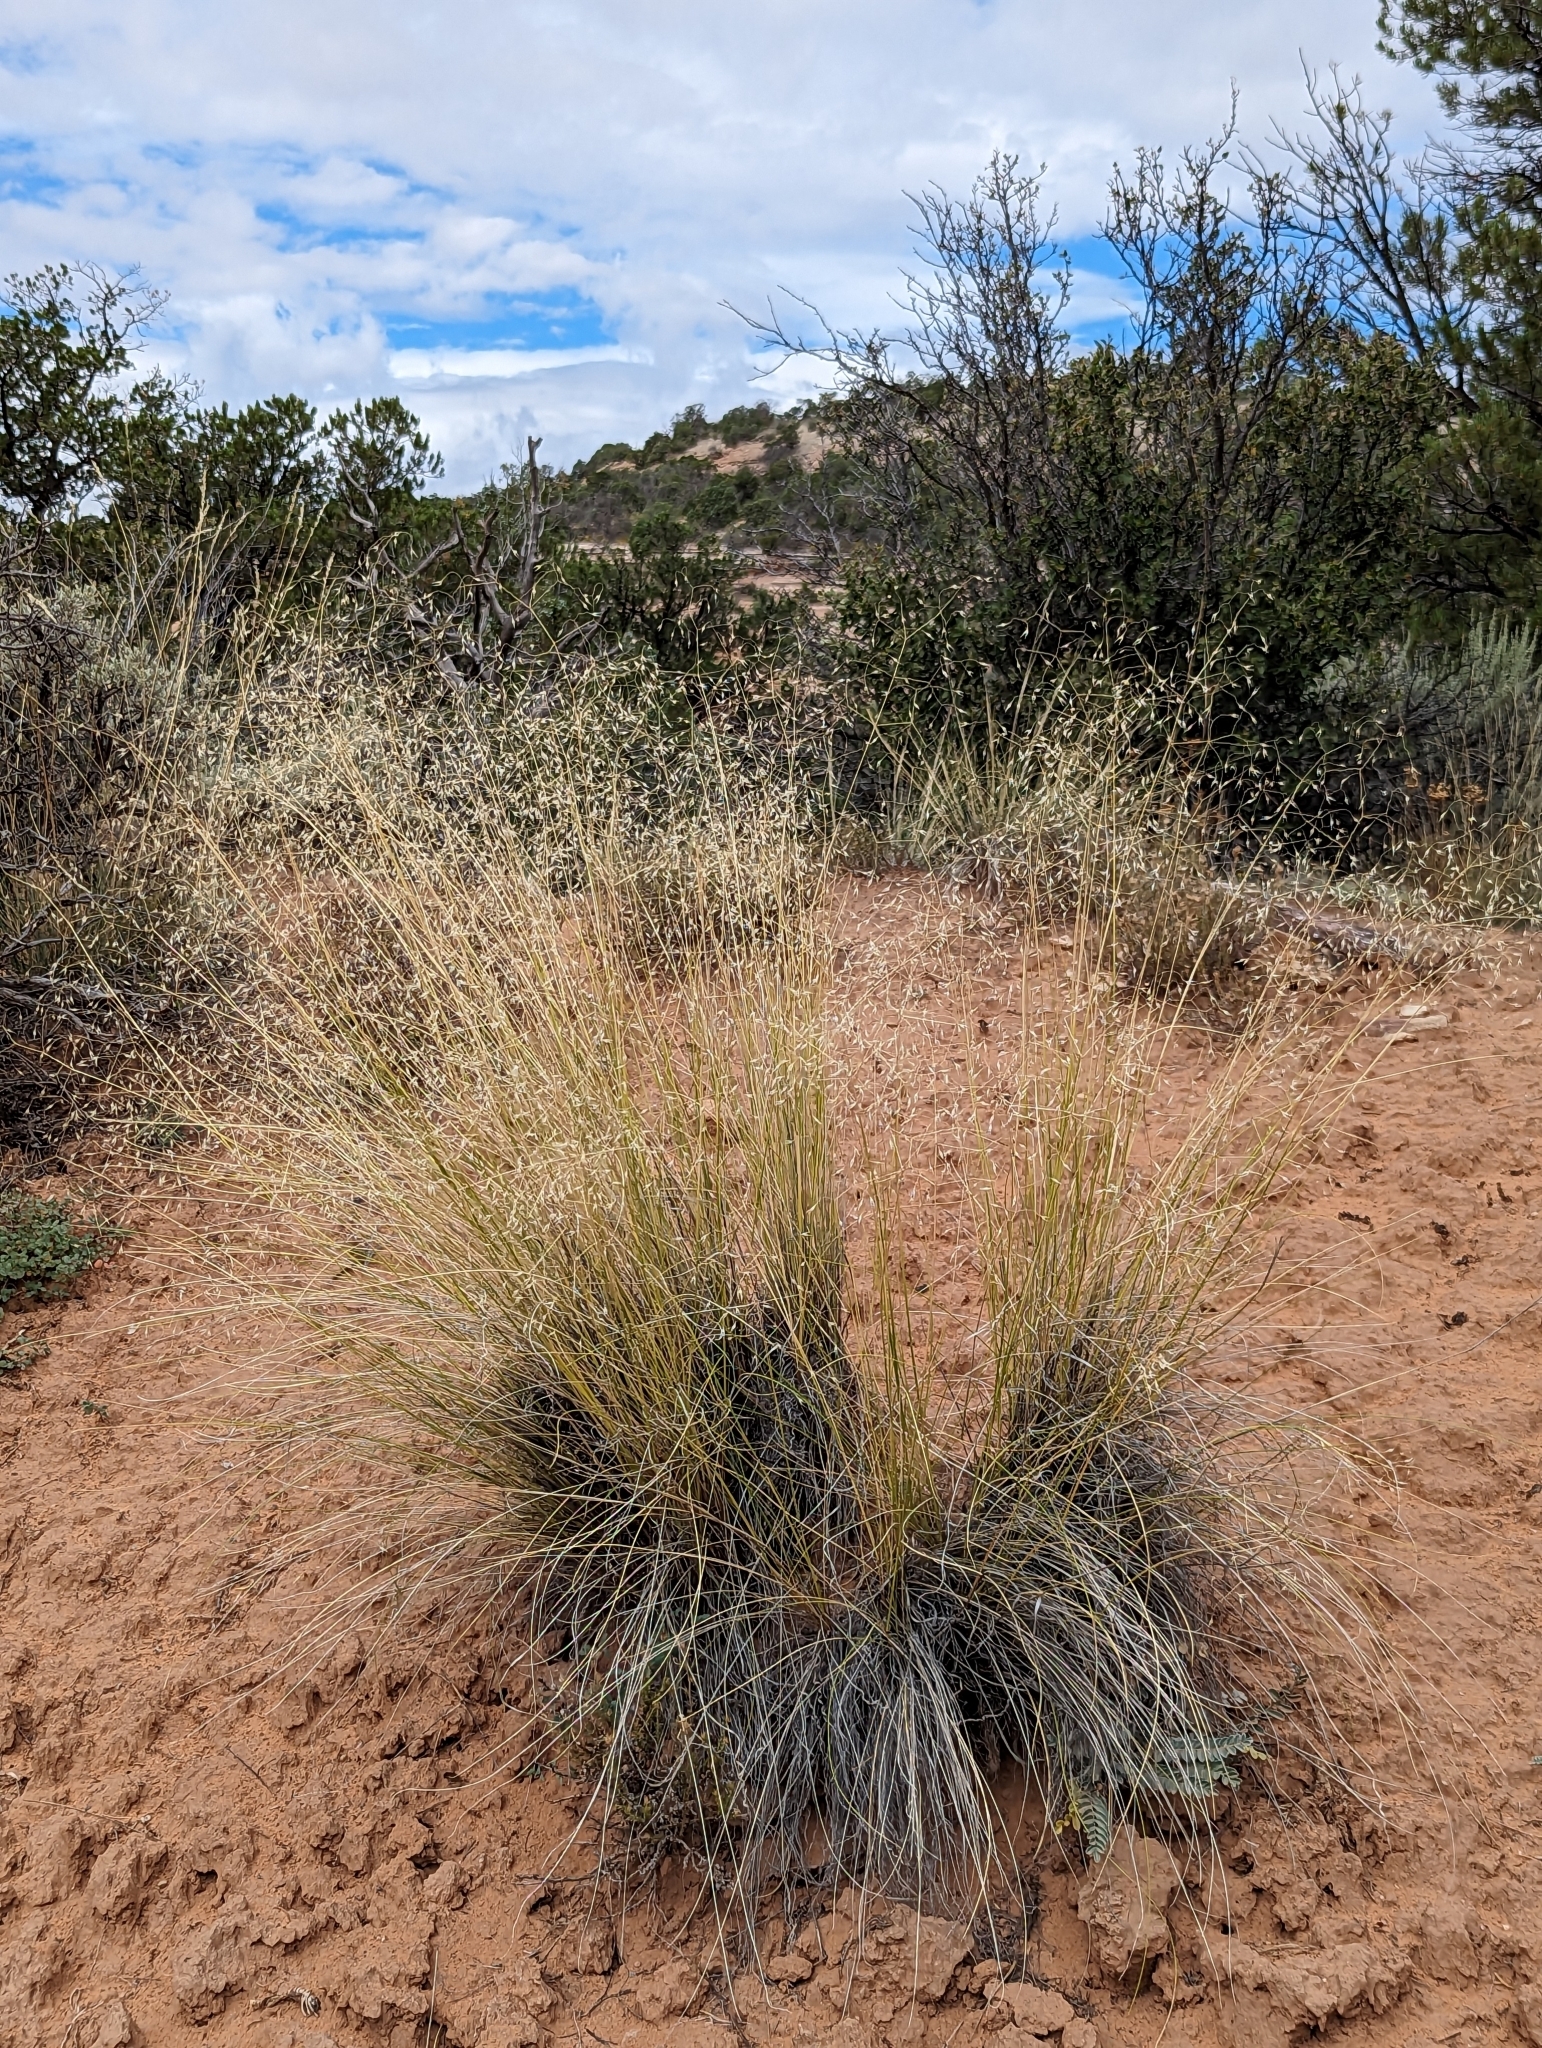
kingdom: Plantae
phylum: Tracheophyta
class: Liliopsida
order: Poales
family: Poaceae
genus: Eriocoma
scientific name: Eriocoma hymenoides
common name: Indian mountain ricegrass
